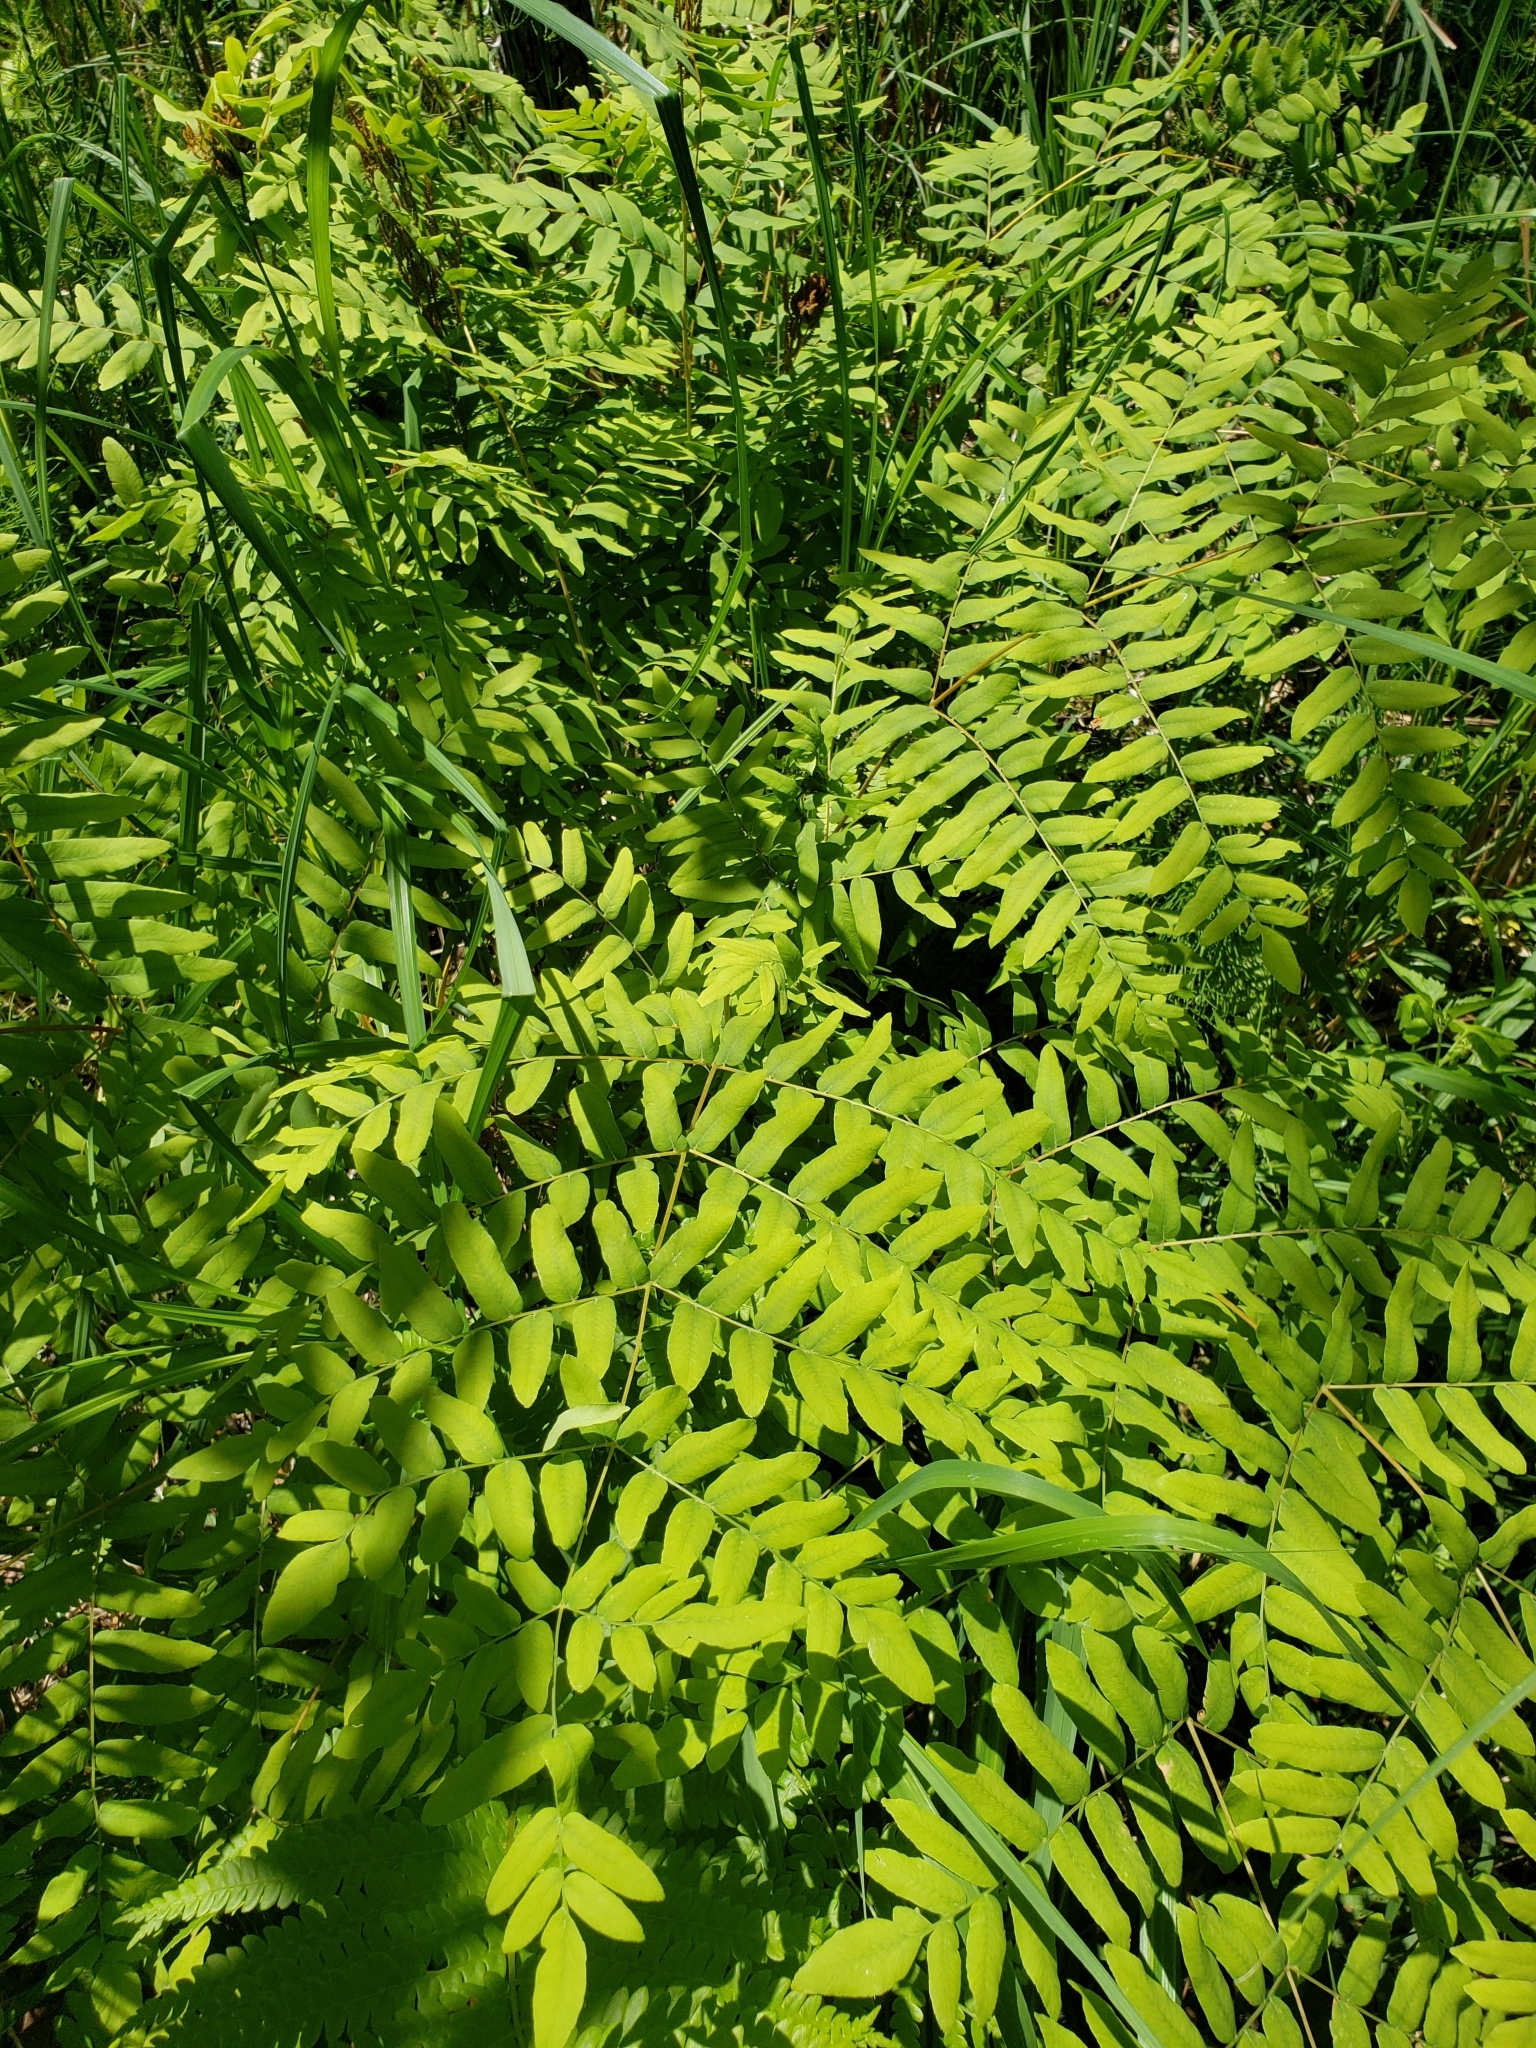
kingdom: Plantae
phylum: Tracheophyta
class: Polypodiopsida
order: Osmundales
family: Osmundaceae
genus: Osmunda
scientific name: Osmunda spectabilis
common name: American royal fern
